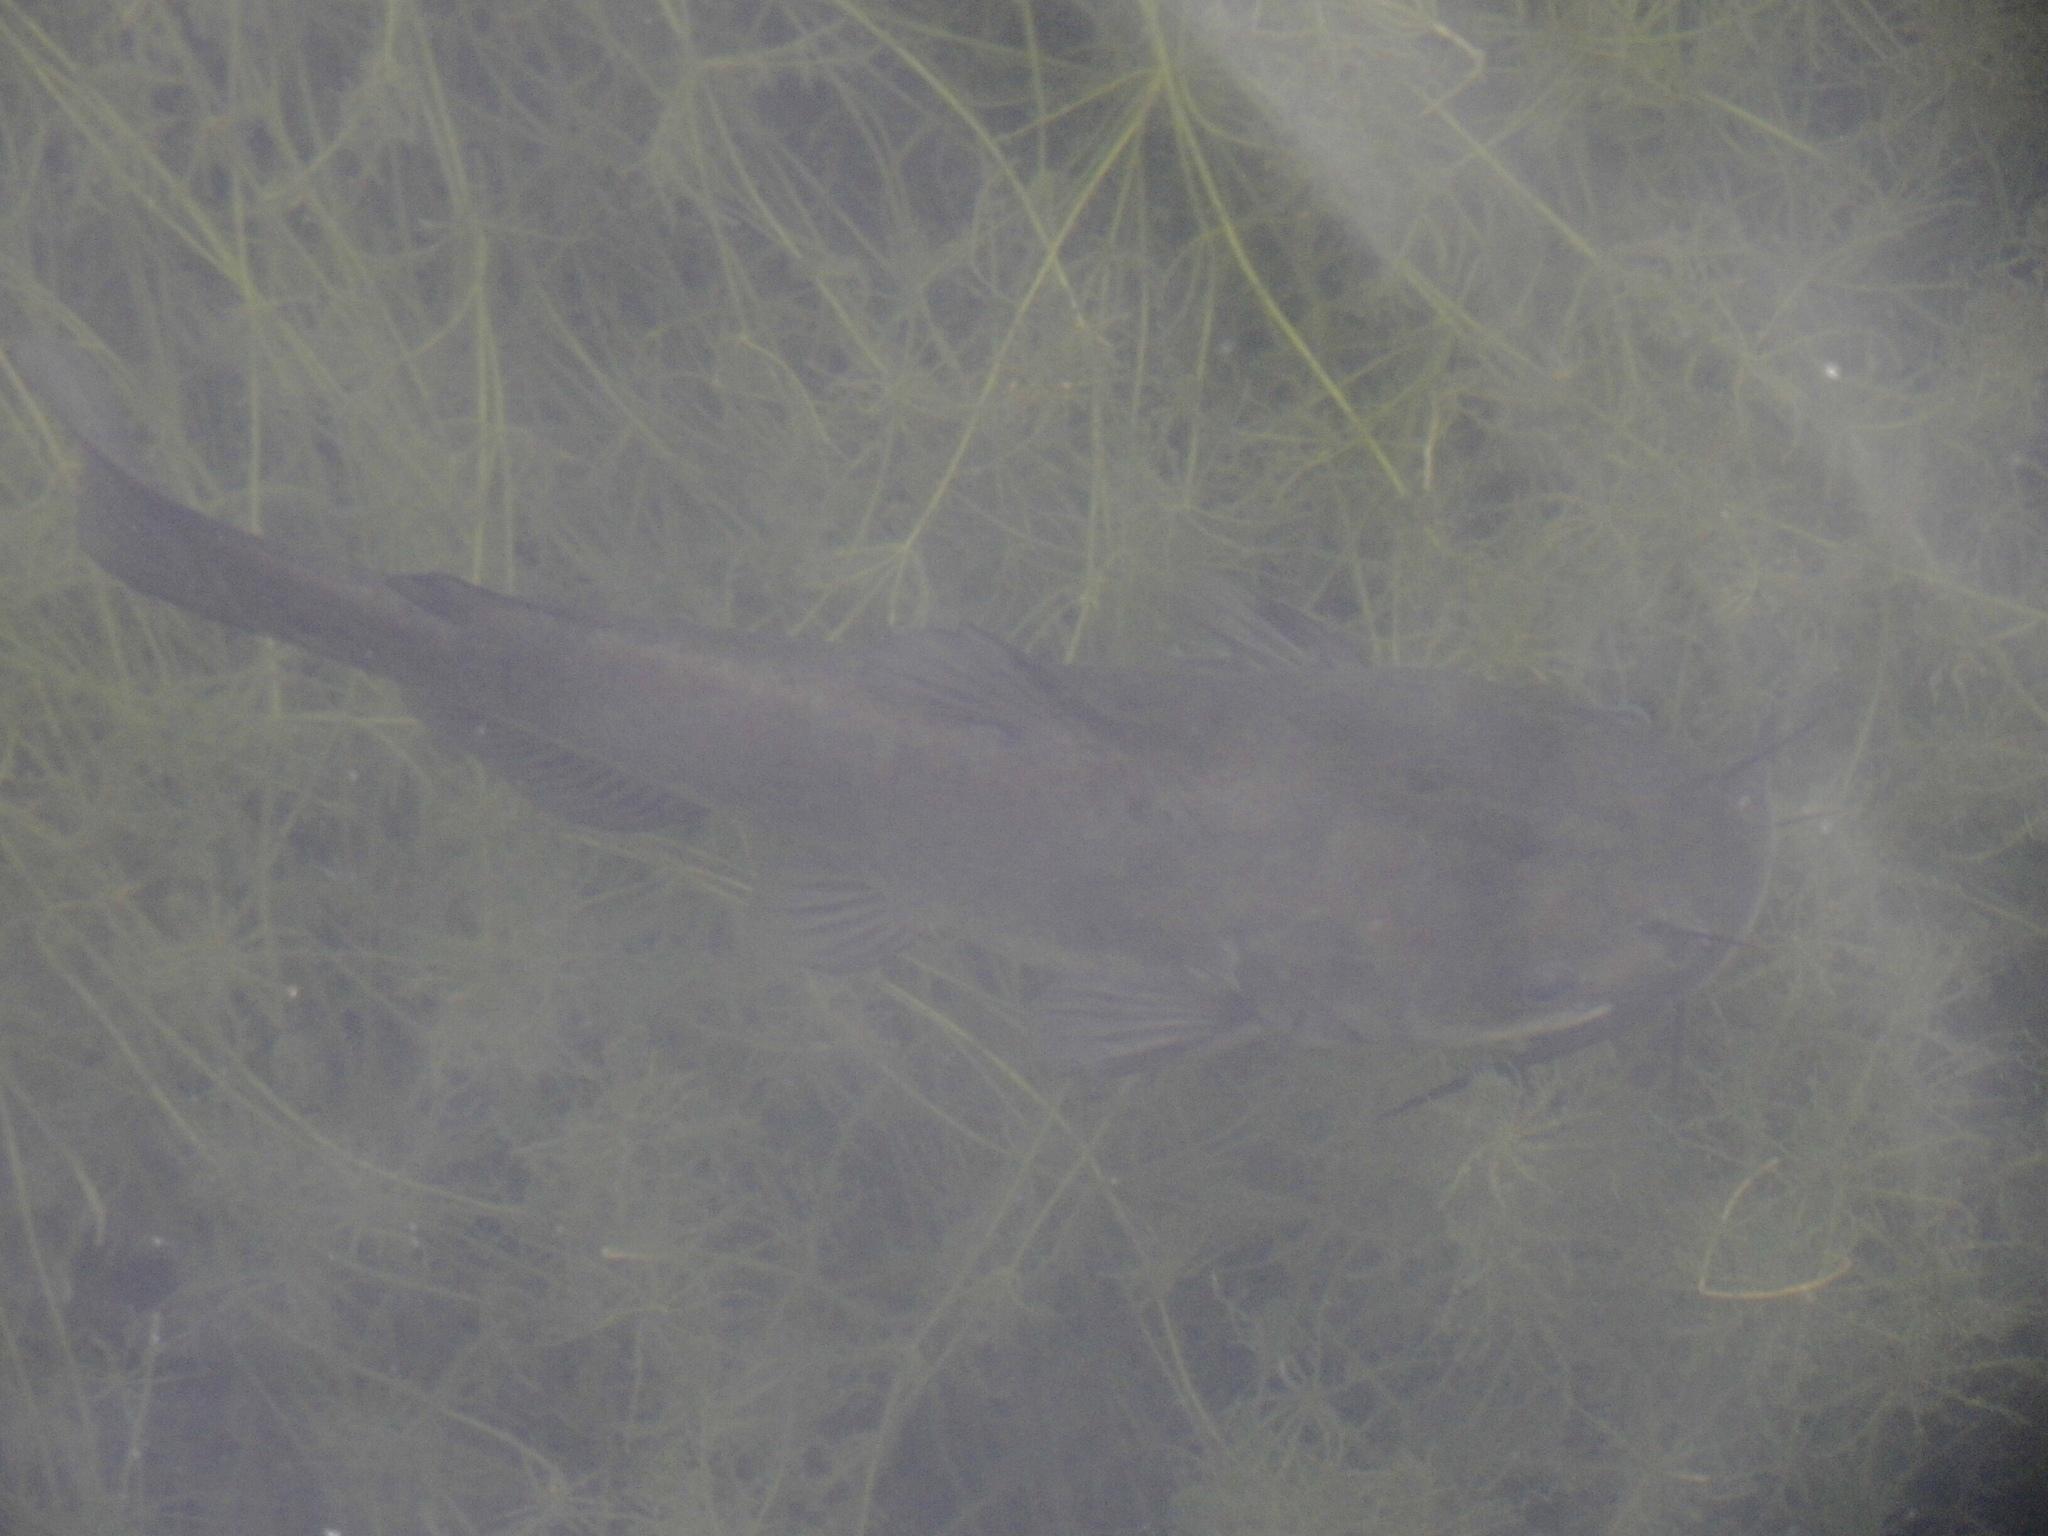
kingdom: Animalia
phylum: Chordata
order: Siluriformes
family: Ictaluridae
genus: Ameiurus
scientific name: Ameiurus melas
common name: Black bullhead
